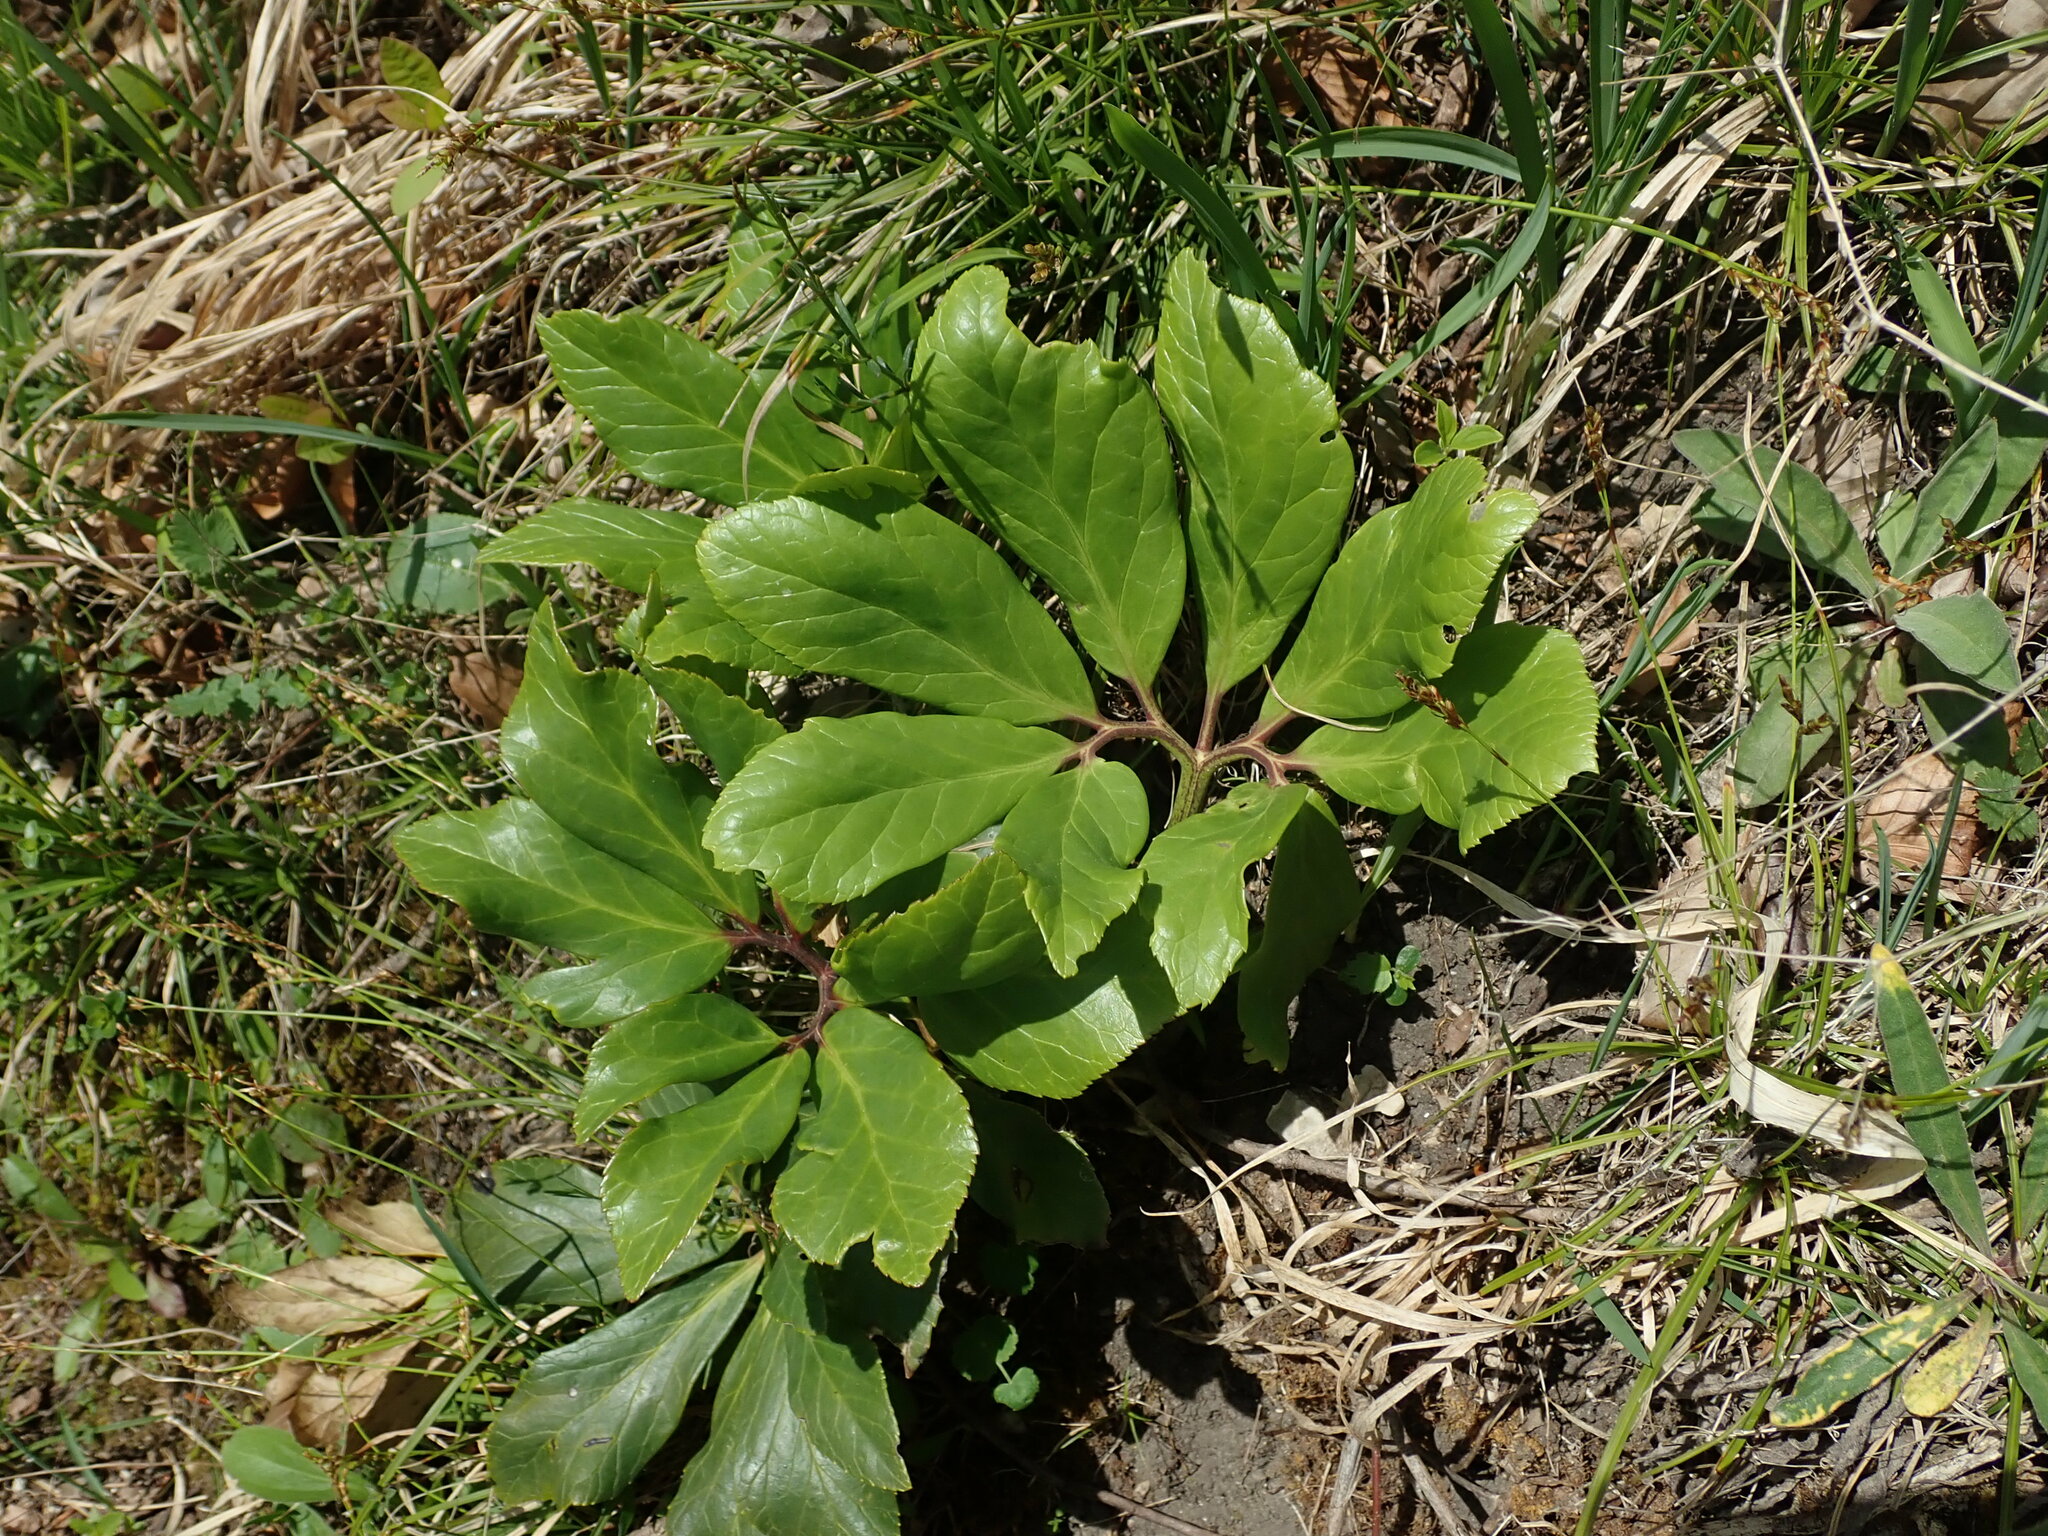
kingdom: Plantae
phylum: Tracheophyta
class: Magnoliopsida
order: Ranunculales
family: Ranunculaceae
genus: Helleborus
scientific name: Helleborus niger
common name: Black hellebore
